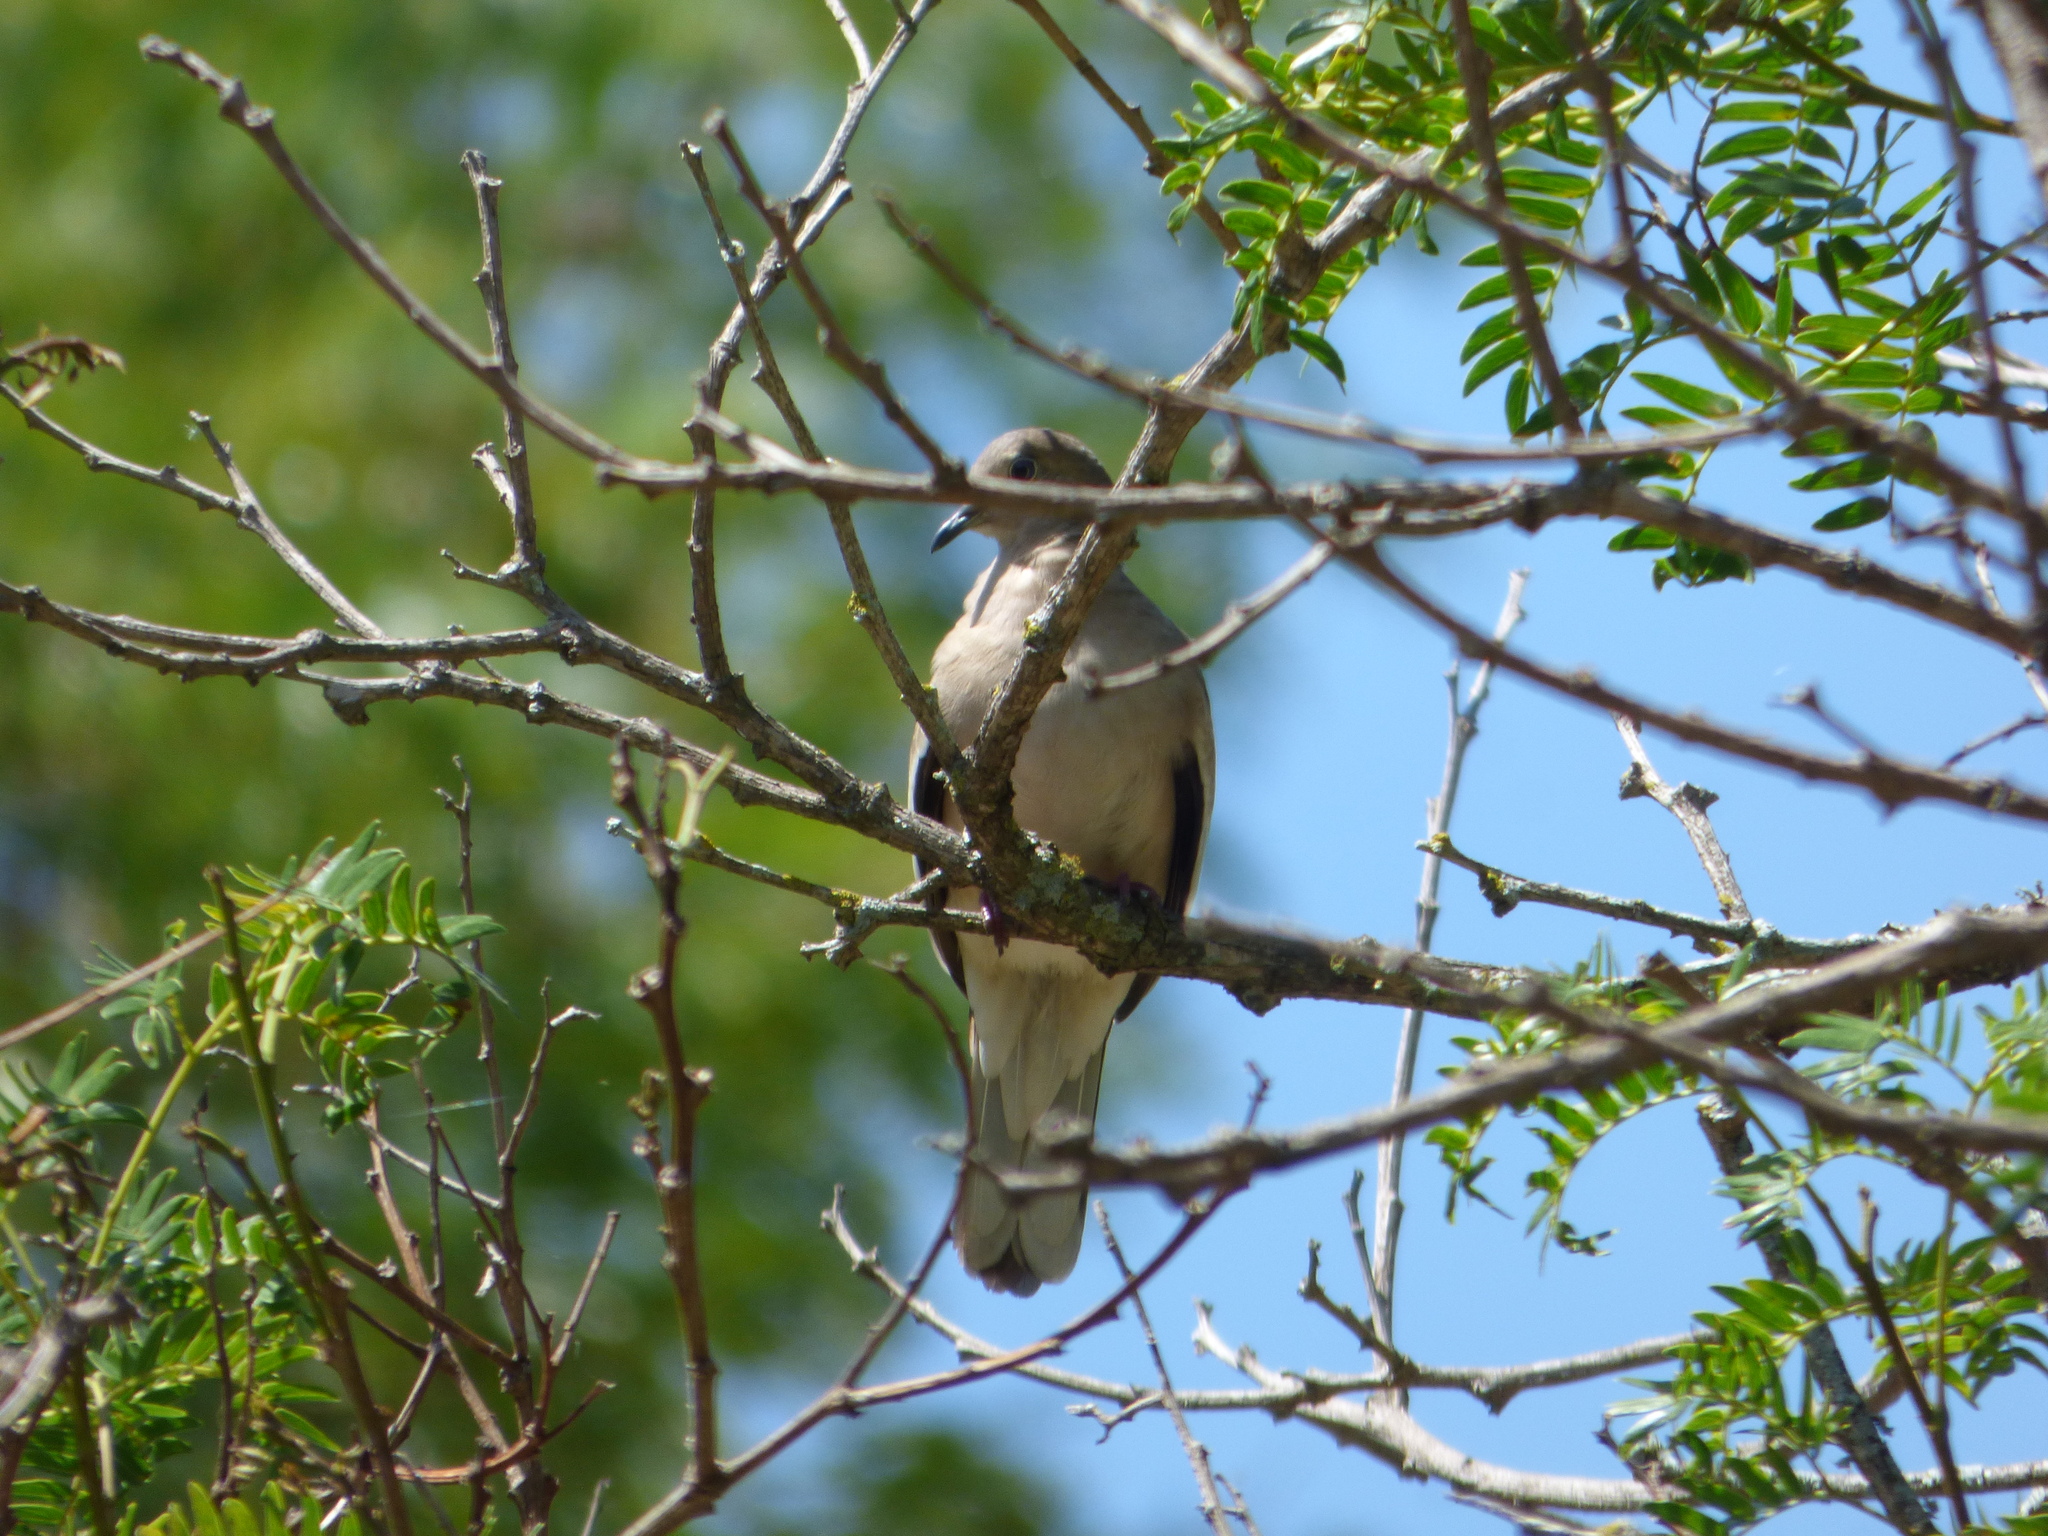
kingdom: Animalia
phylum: Chordata
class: Aves
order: Columbiformes
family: Columbidae
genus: Columbina
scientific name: Columbina picui
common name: Picui ground dove
